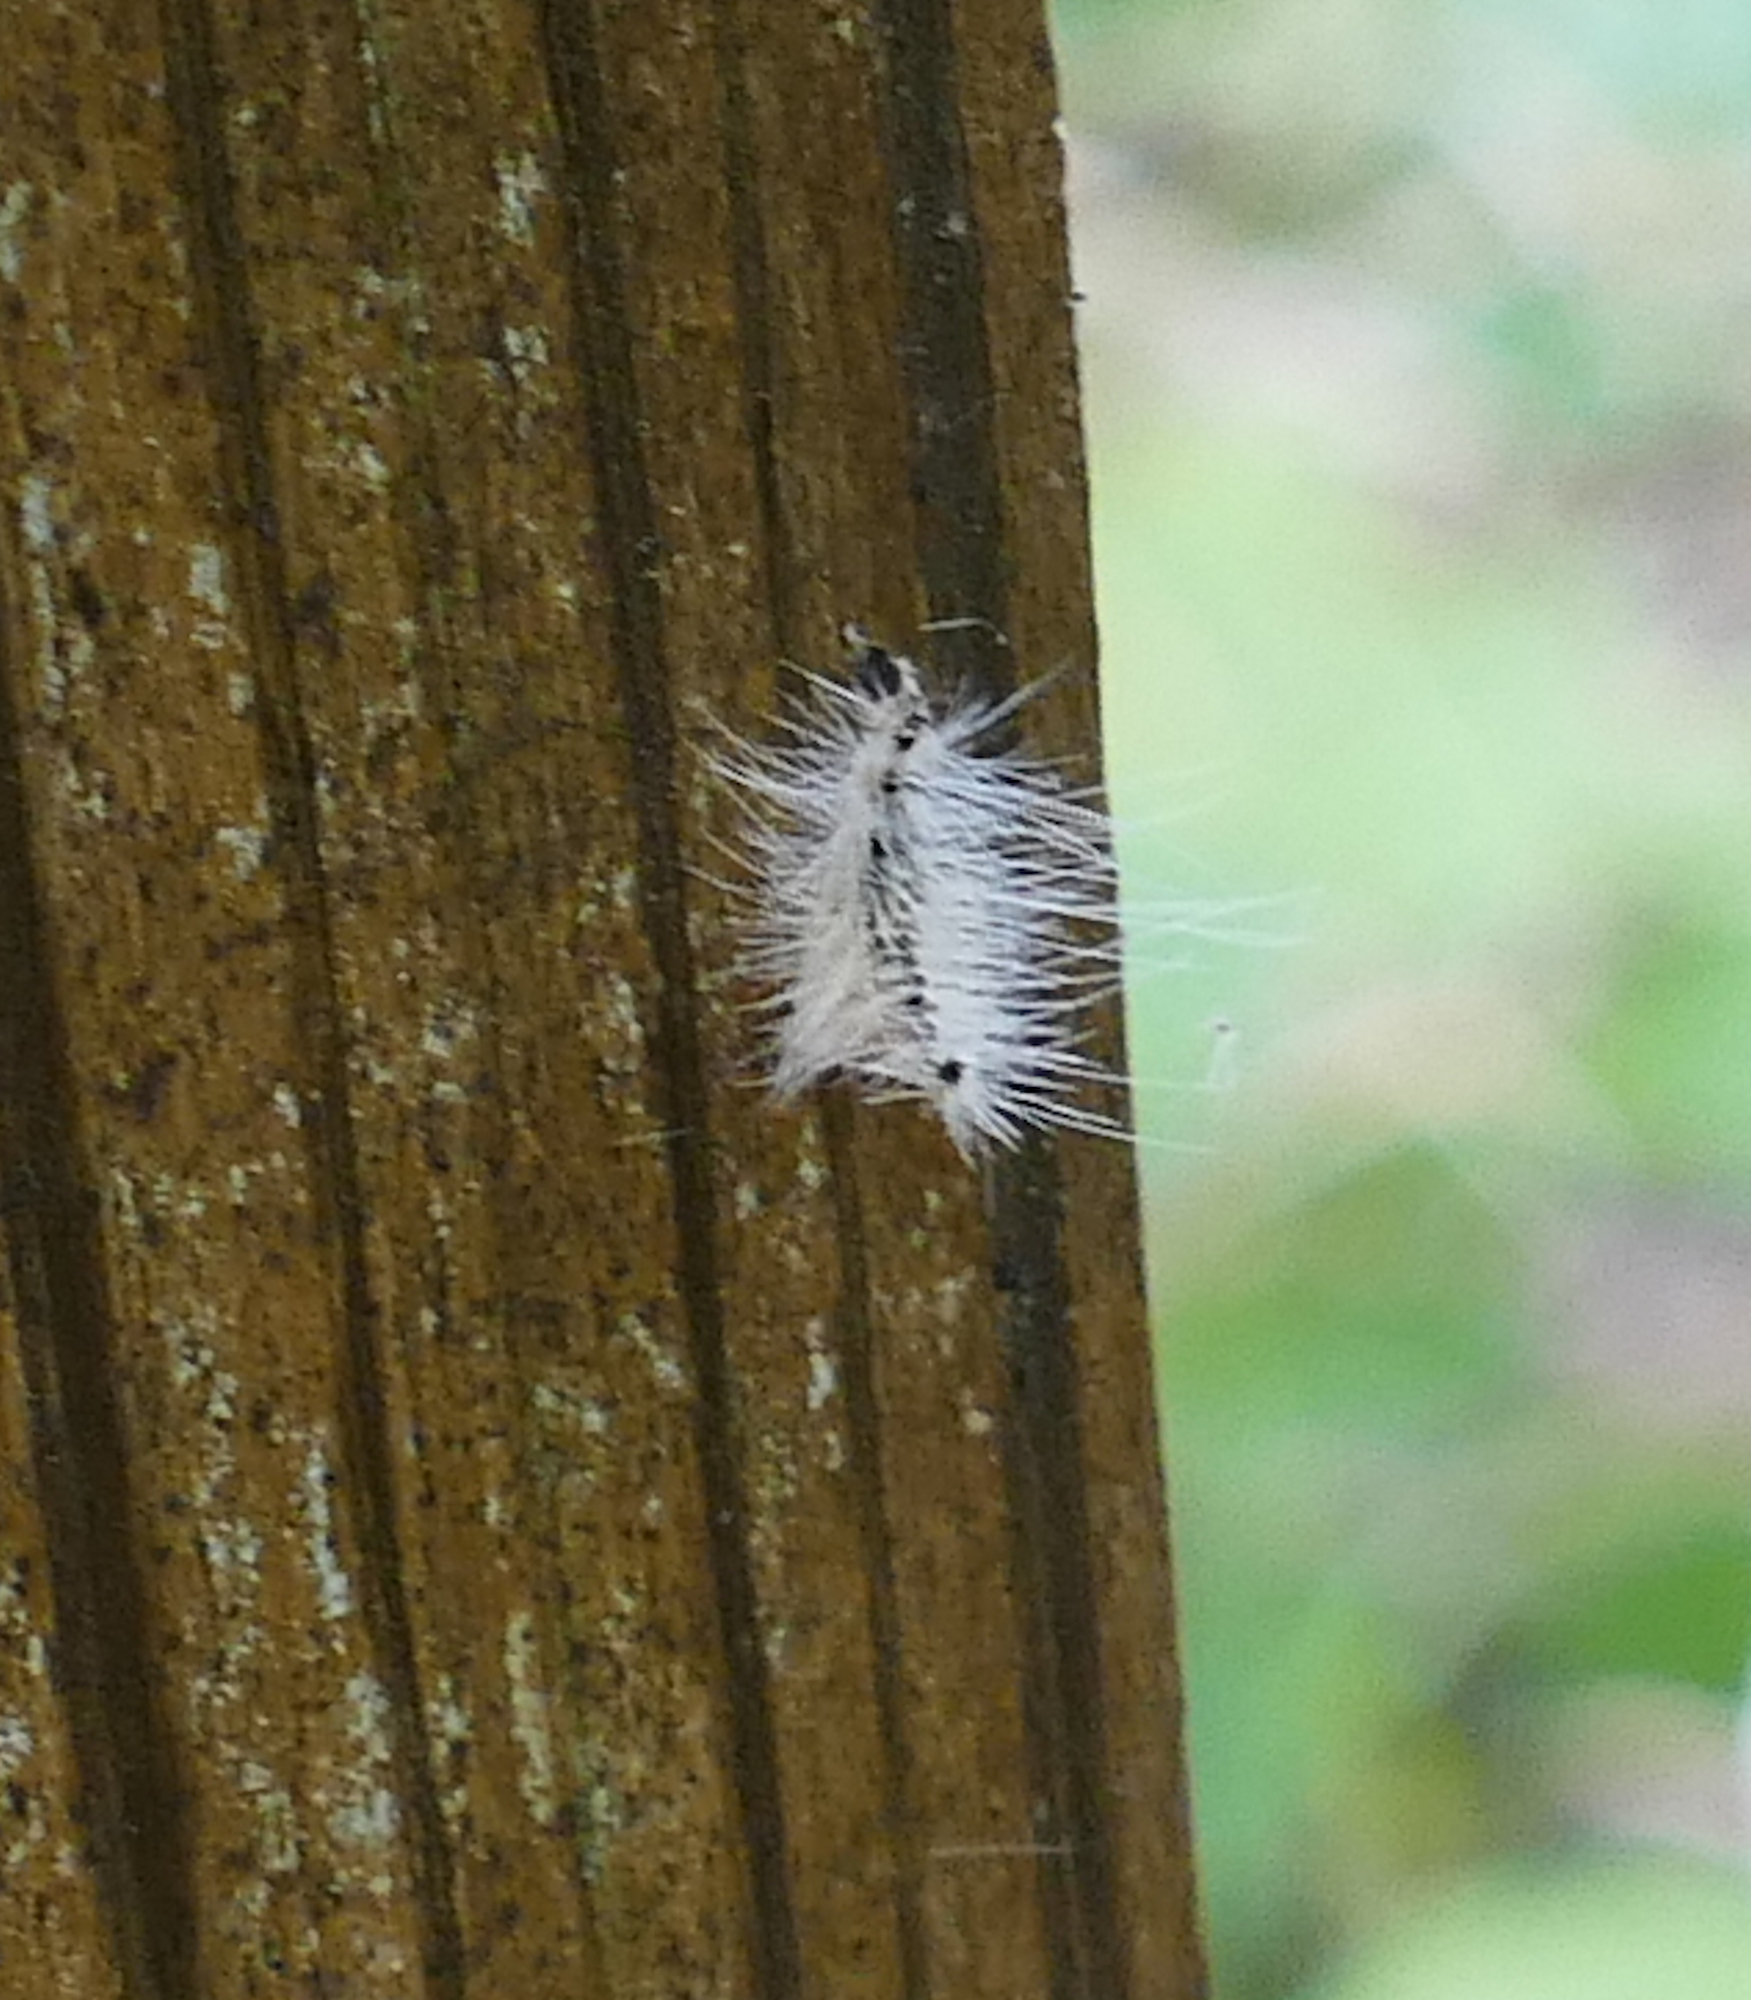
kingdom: Animalia
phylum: Arthropoda
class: Insecta
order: Lepidoptera
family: Erebidae
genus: Hyphantria
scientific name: Hyphantria cunea
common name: American white moth
